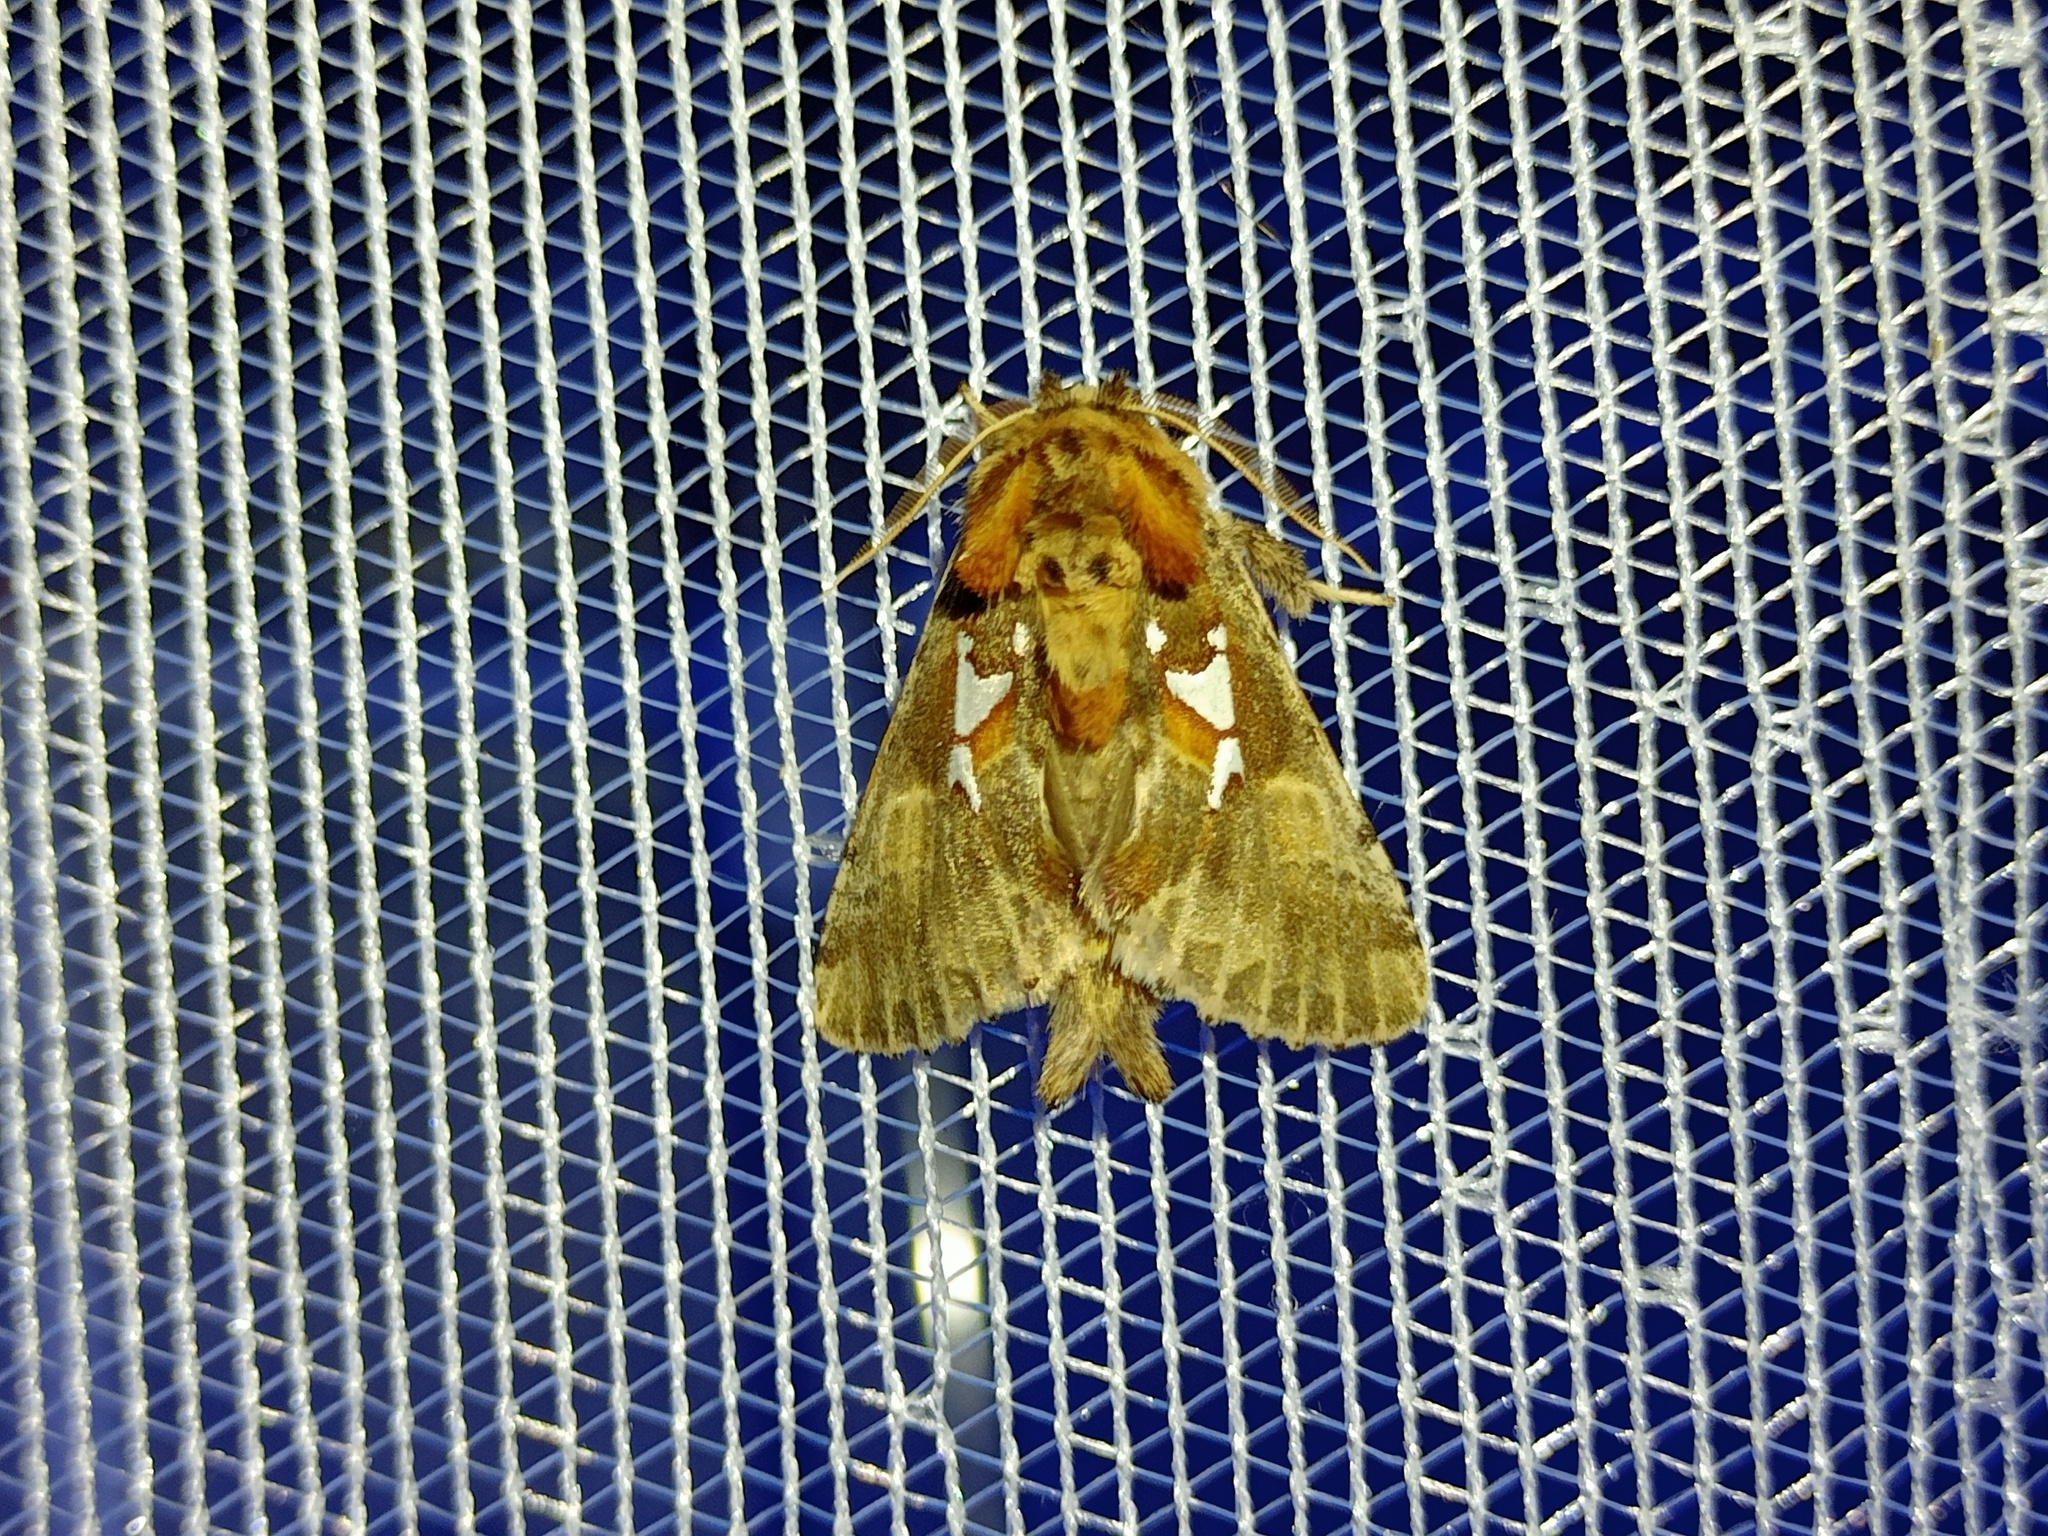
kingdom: Animalia
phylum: Arthropoda
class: Insecta
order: Lepidoptera
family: Notodontidae
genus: Spatalia
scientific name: Spatalia argentina
